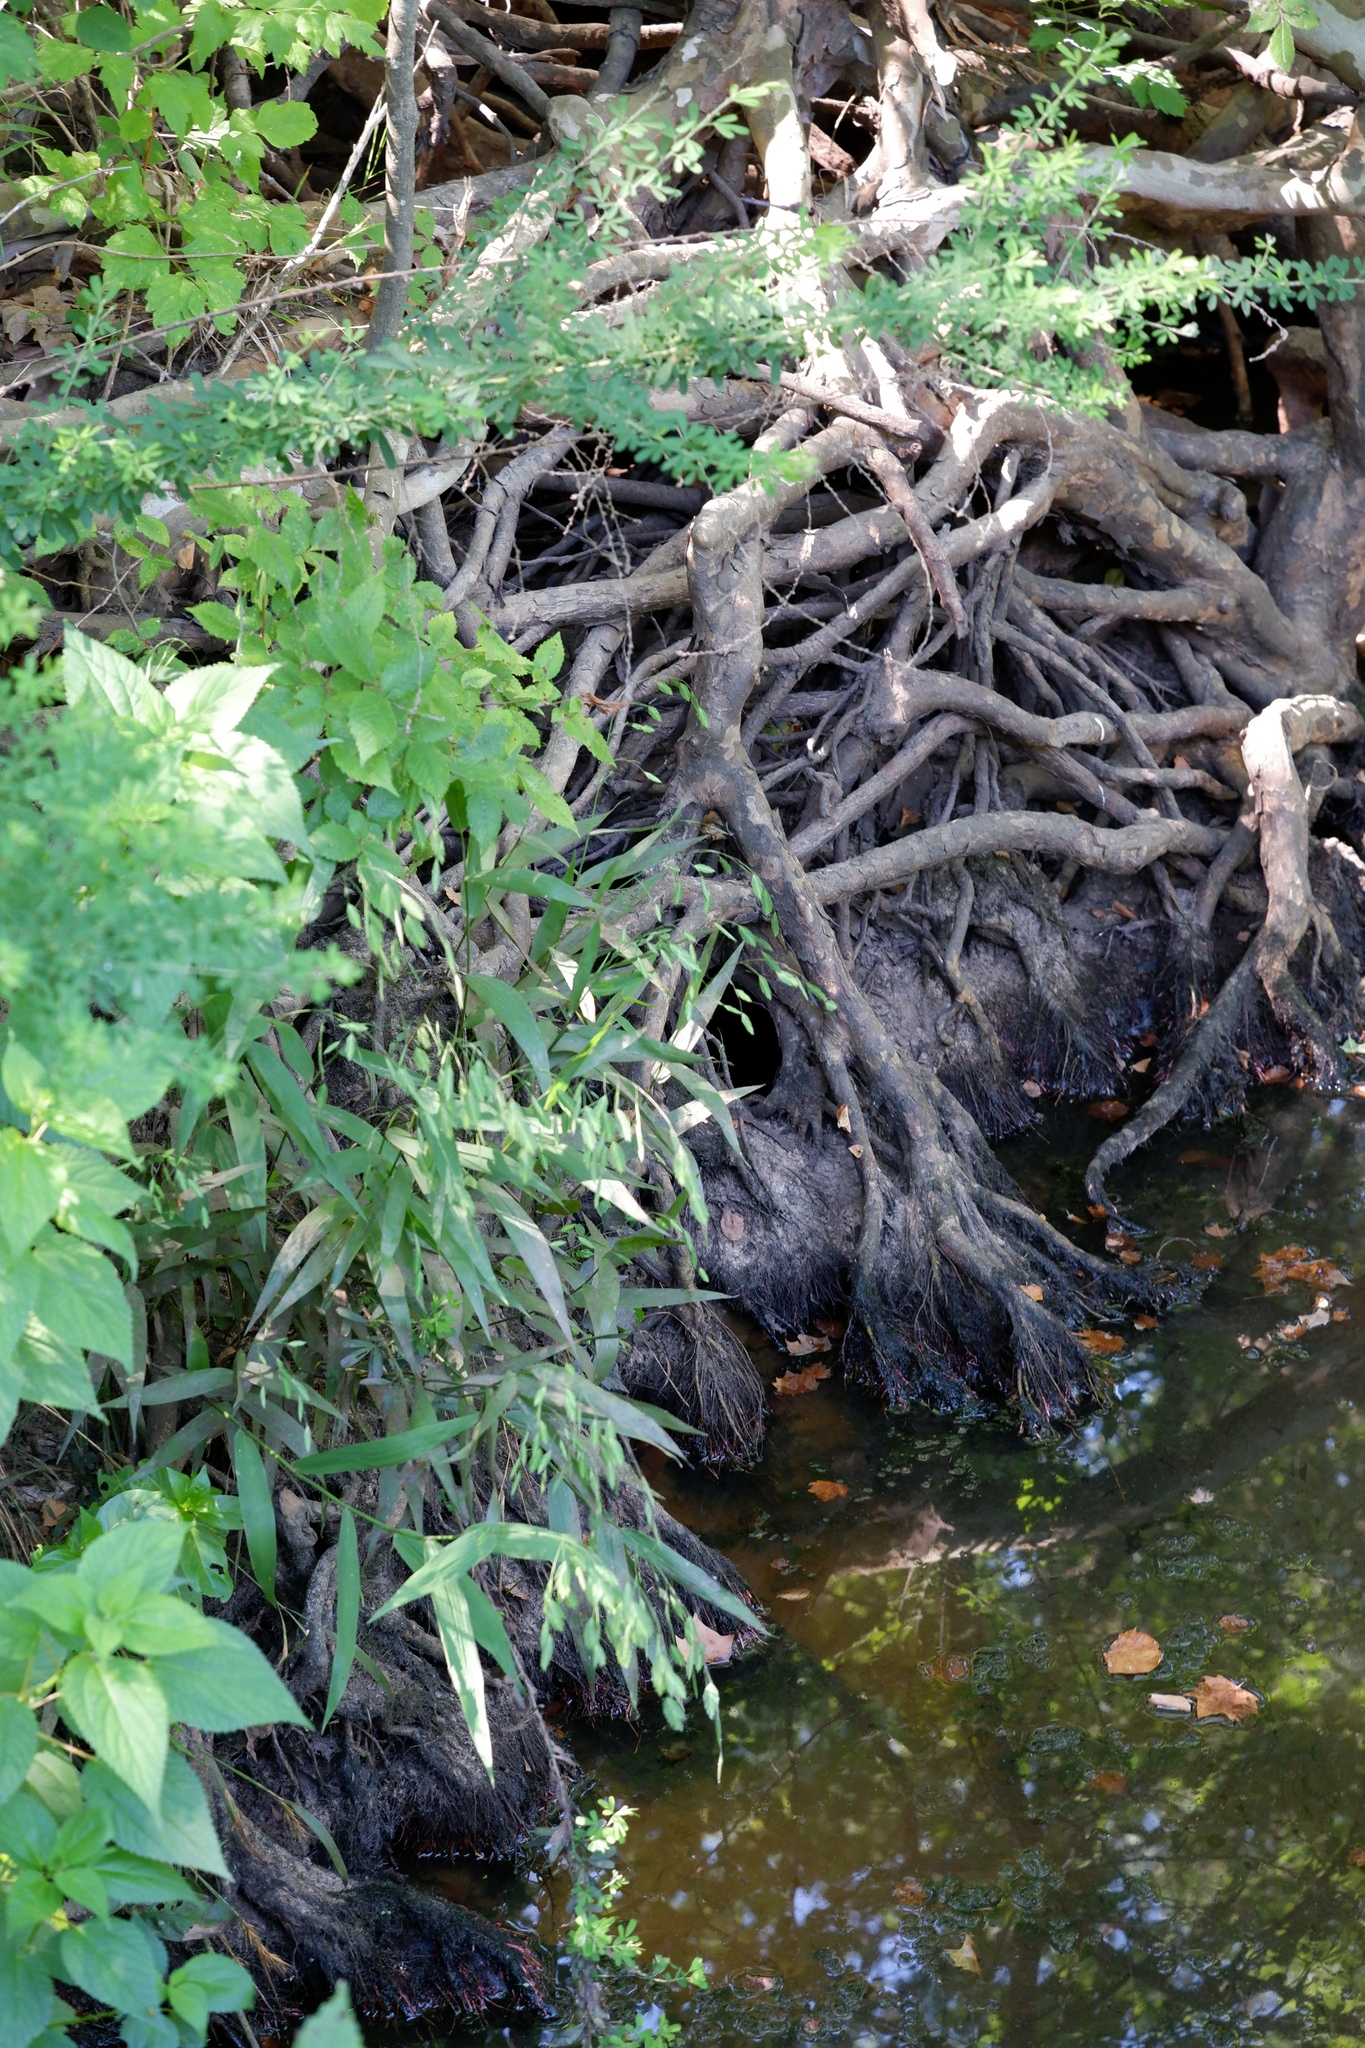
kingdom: Plantae
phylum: Tracheophyta
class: Liliopsida
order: Poales
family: Poaceae
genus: Chasmanthium
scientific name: Chasmanthium latifolium
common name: Broad-leaved chasmanthium
